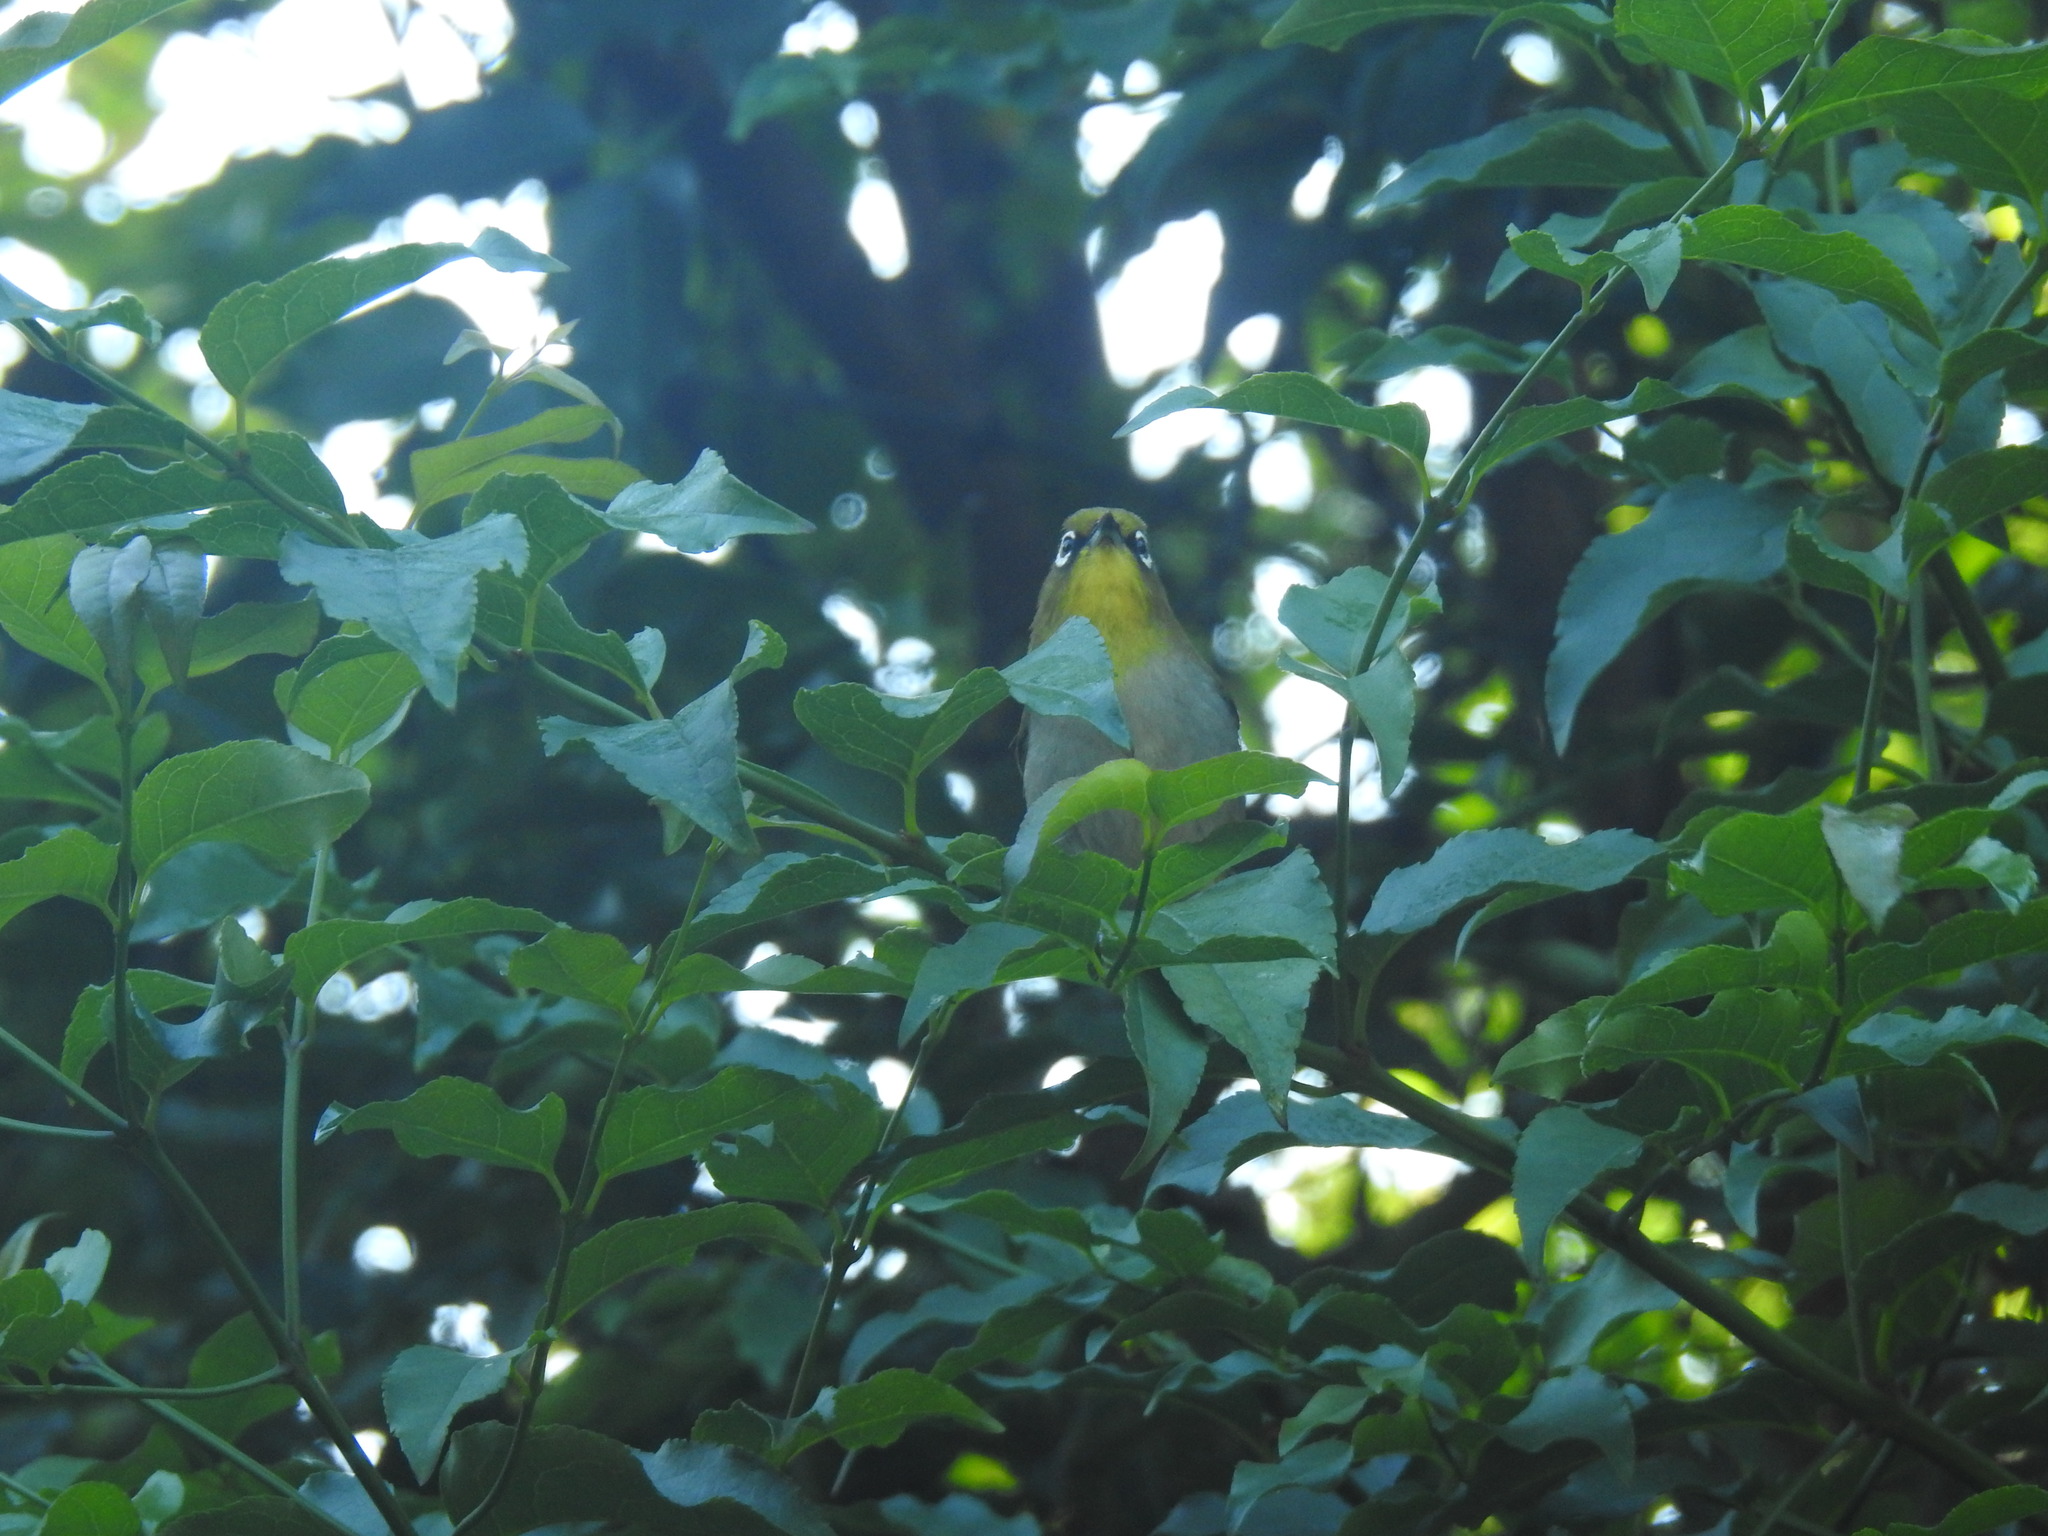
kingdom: Animalia
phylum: Chordata
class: Aves
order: Passeriformes
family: Zosteropidae
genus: Zosterops
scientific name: Zosterops virens
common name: Cape white-eye
